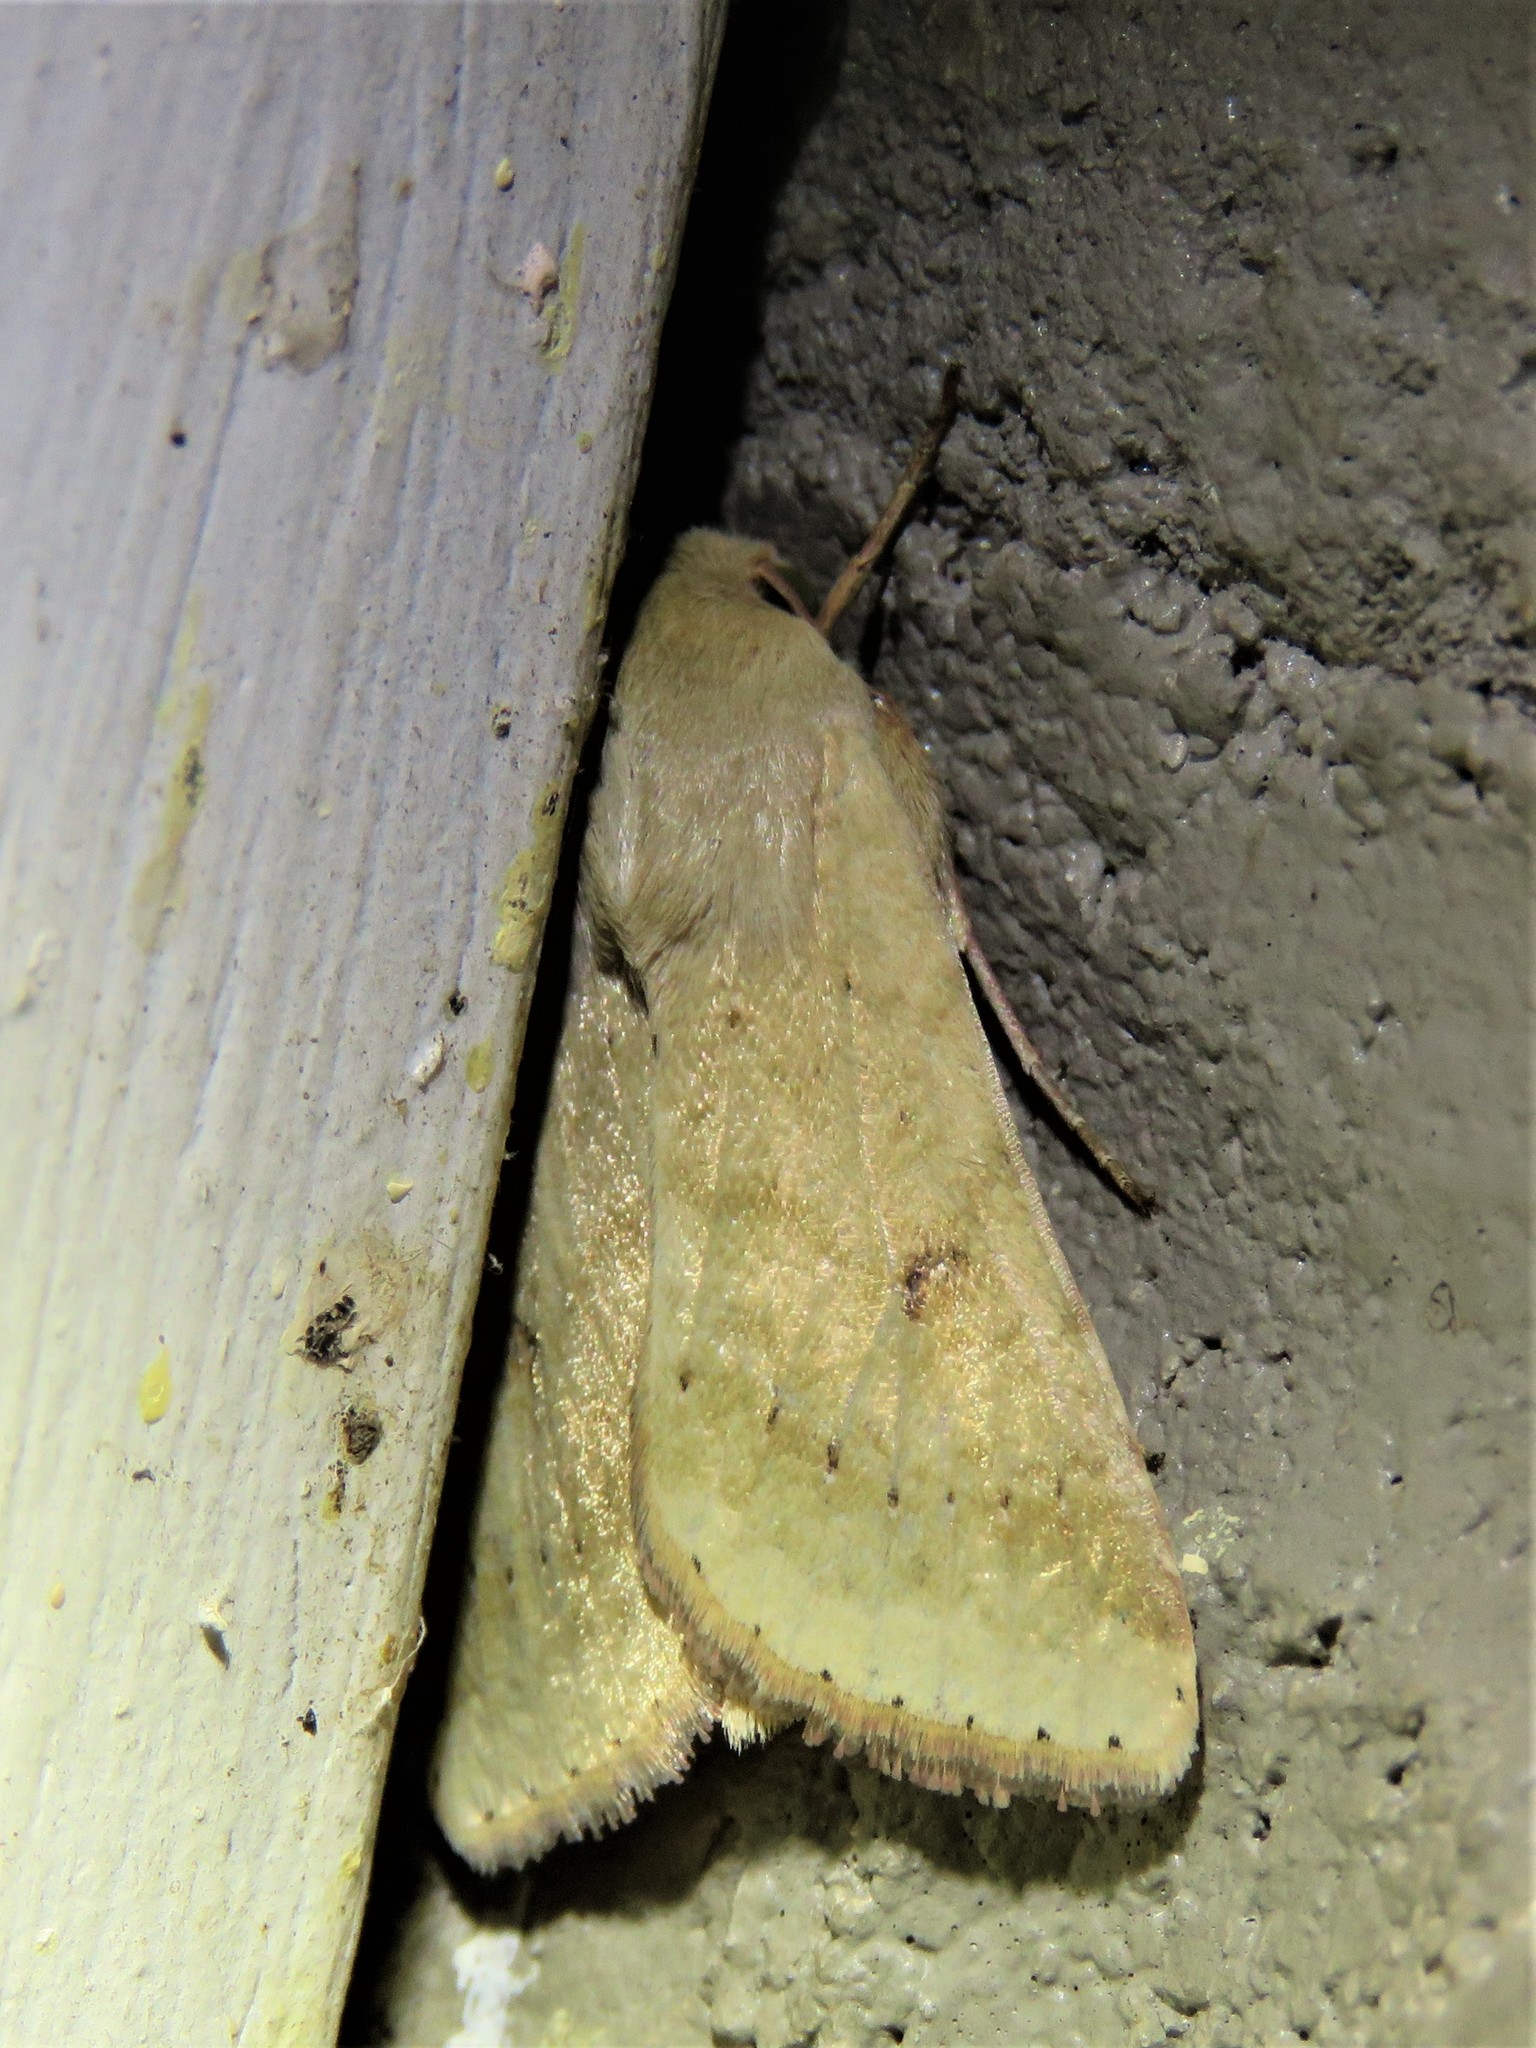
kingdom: Animalia
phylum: Arthropoda
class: Insecta
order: Lepidoptera
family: Noctuidae
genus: Helicoverpa
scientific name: Helicoverpa zea
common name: Bollworm
